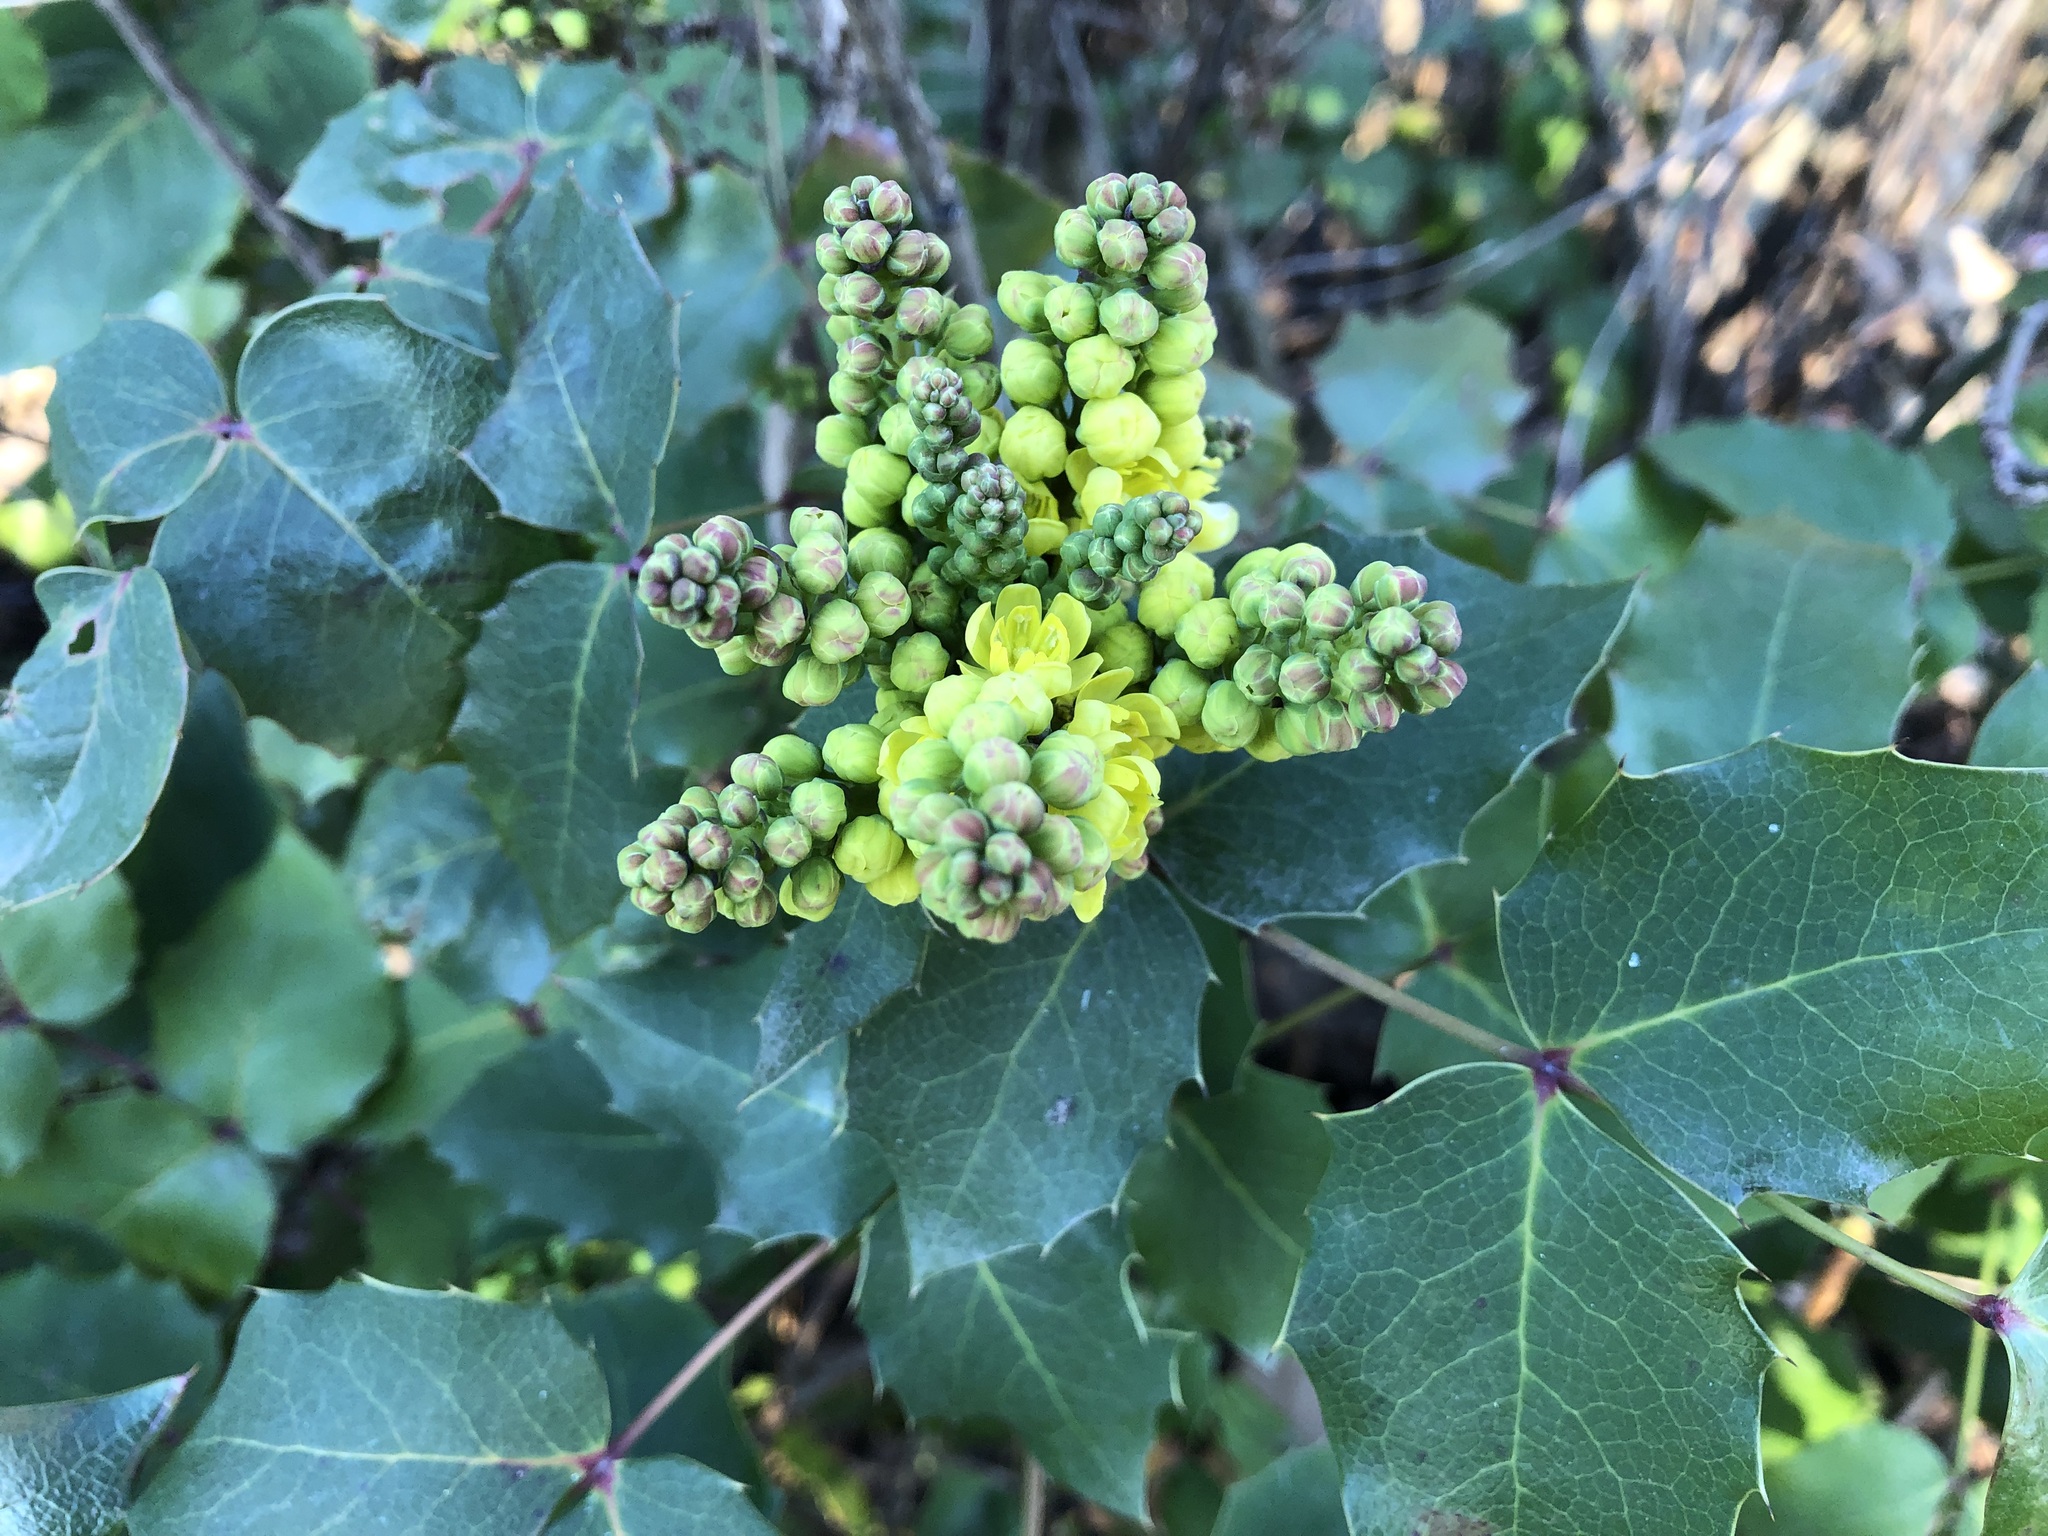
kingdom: Plantae
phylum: Tracheophyta
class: Magnoliopsida
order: Ranunculales
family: Berberidaceae
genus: Mahonia
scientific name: Mahonia aquifolium
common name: Oregon-grape
